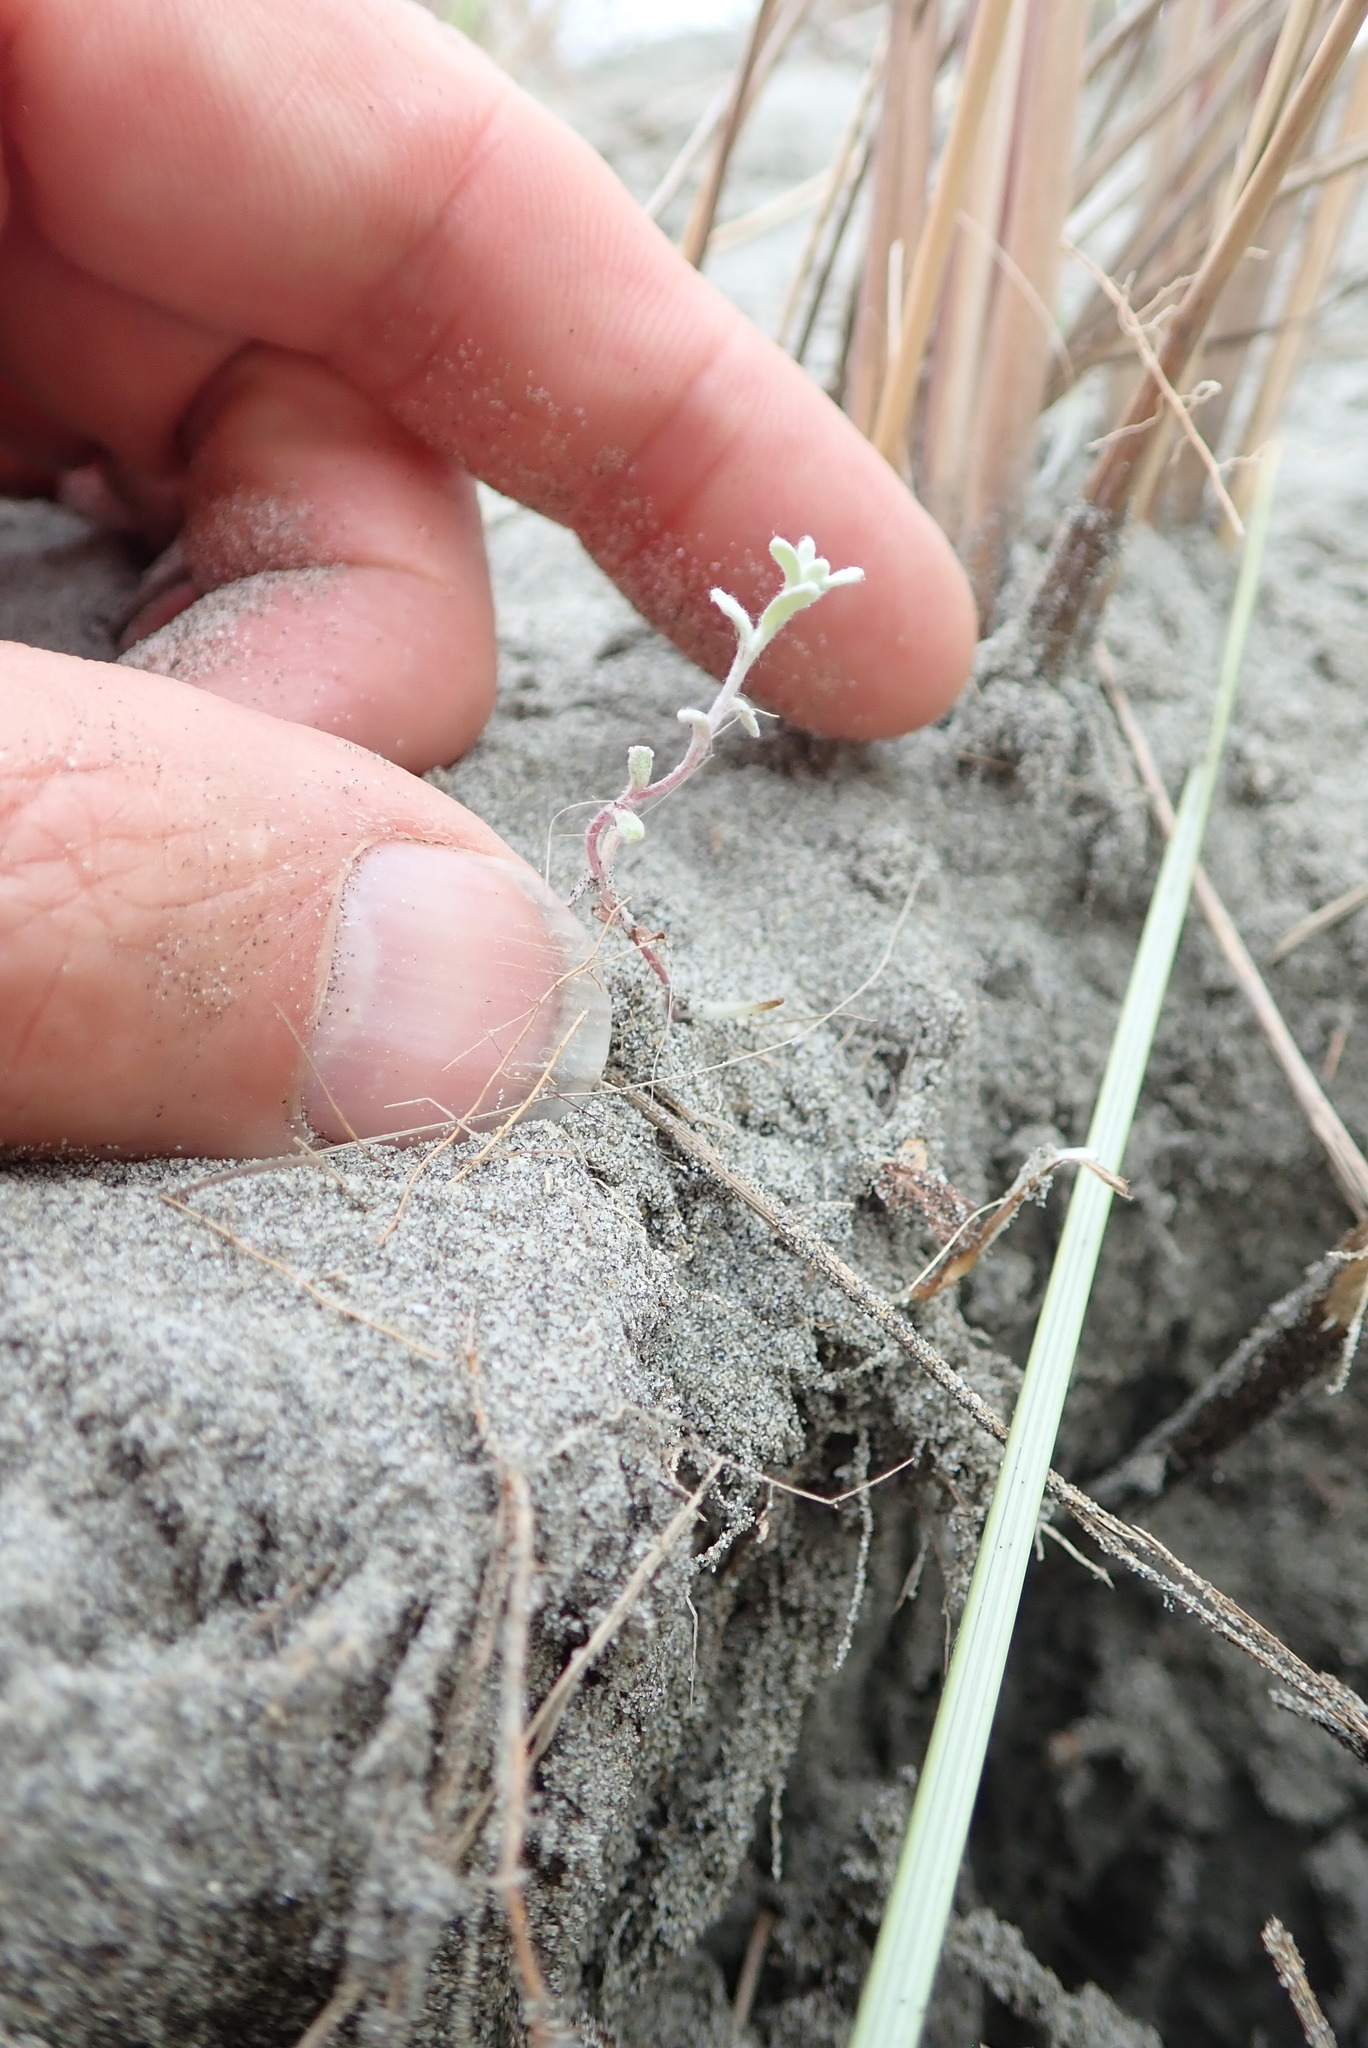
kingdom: Plantae
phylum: Tracheophyta
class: Magnoliopsida
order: Asterales
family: Asteraceae
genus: Ozothamnus
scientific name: Ozothamnus leptophyllus
